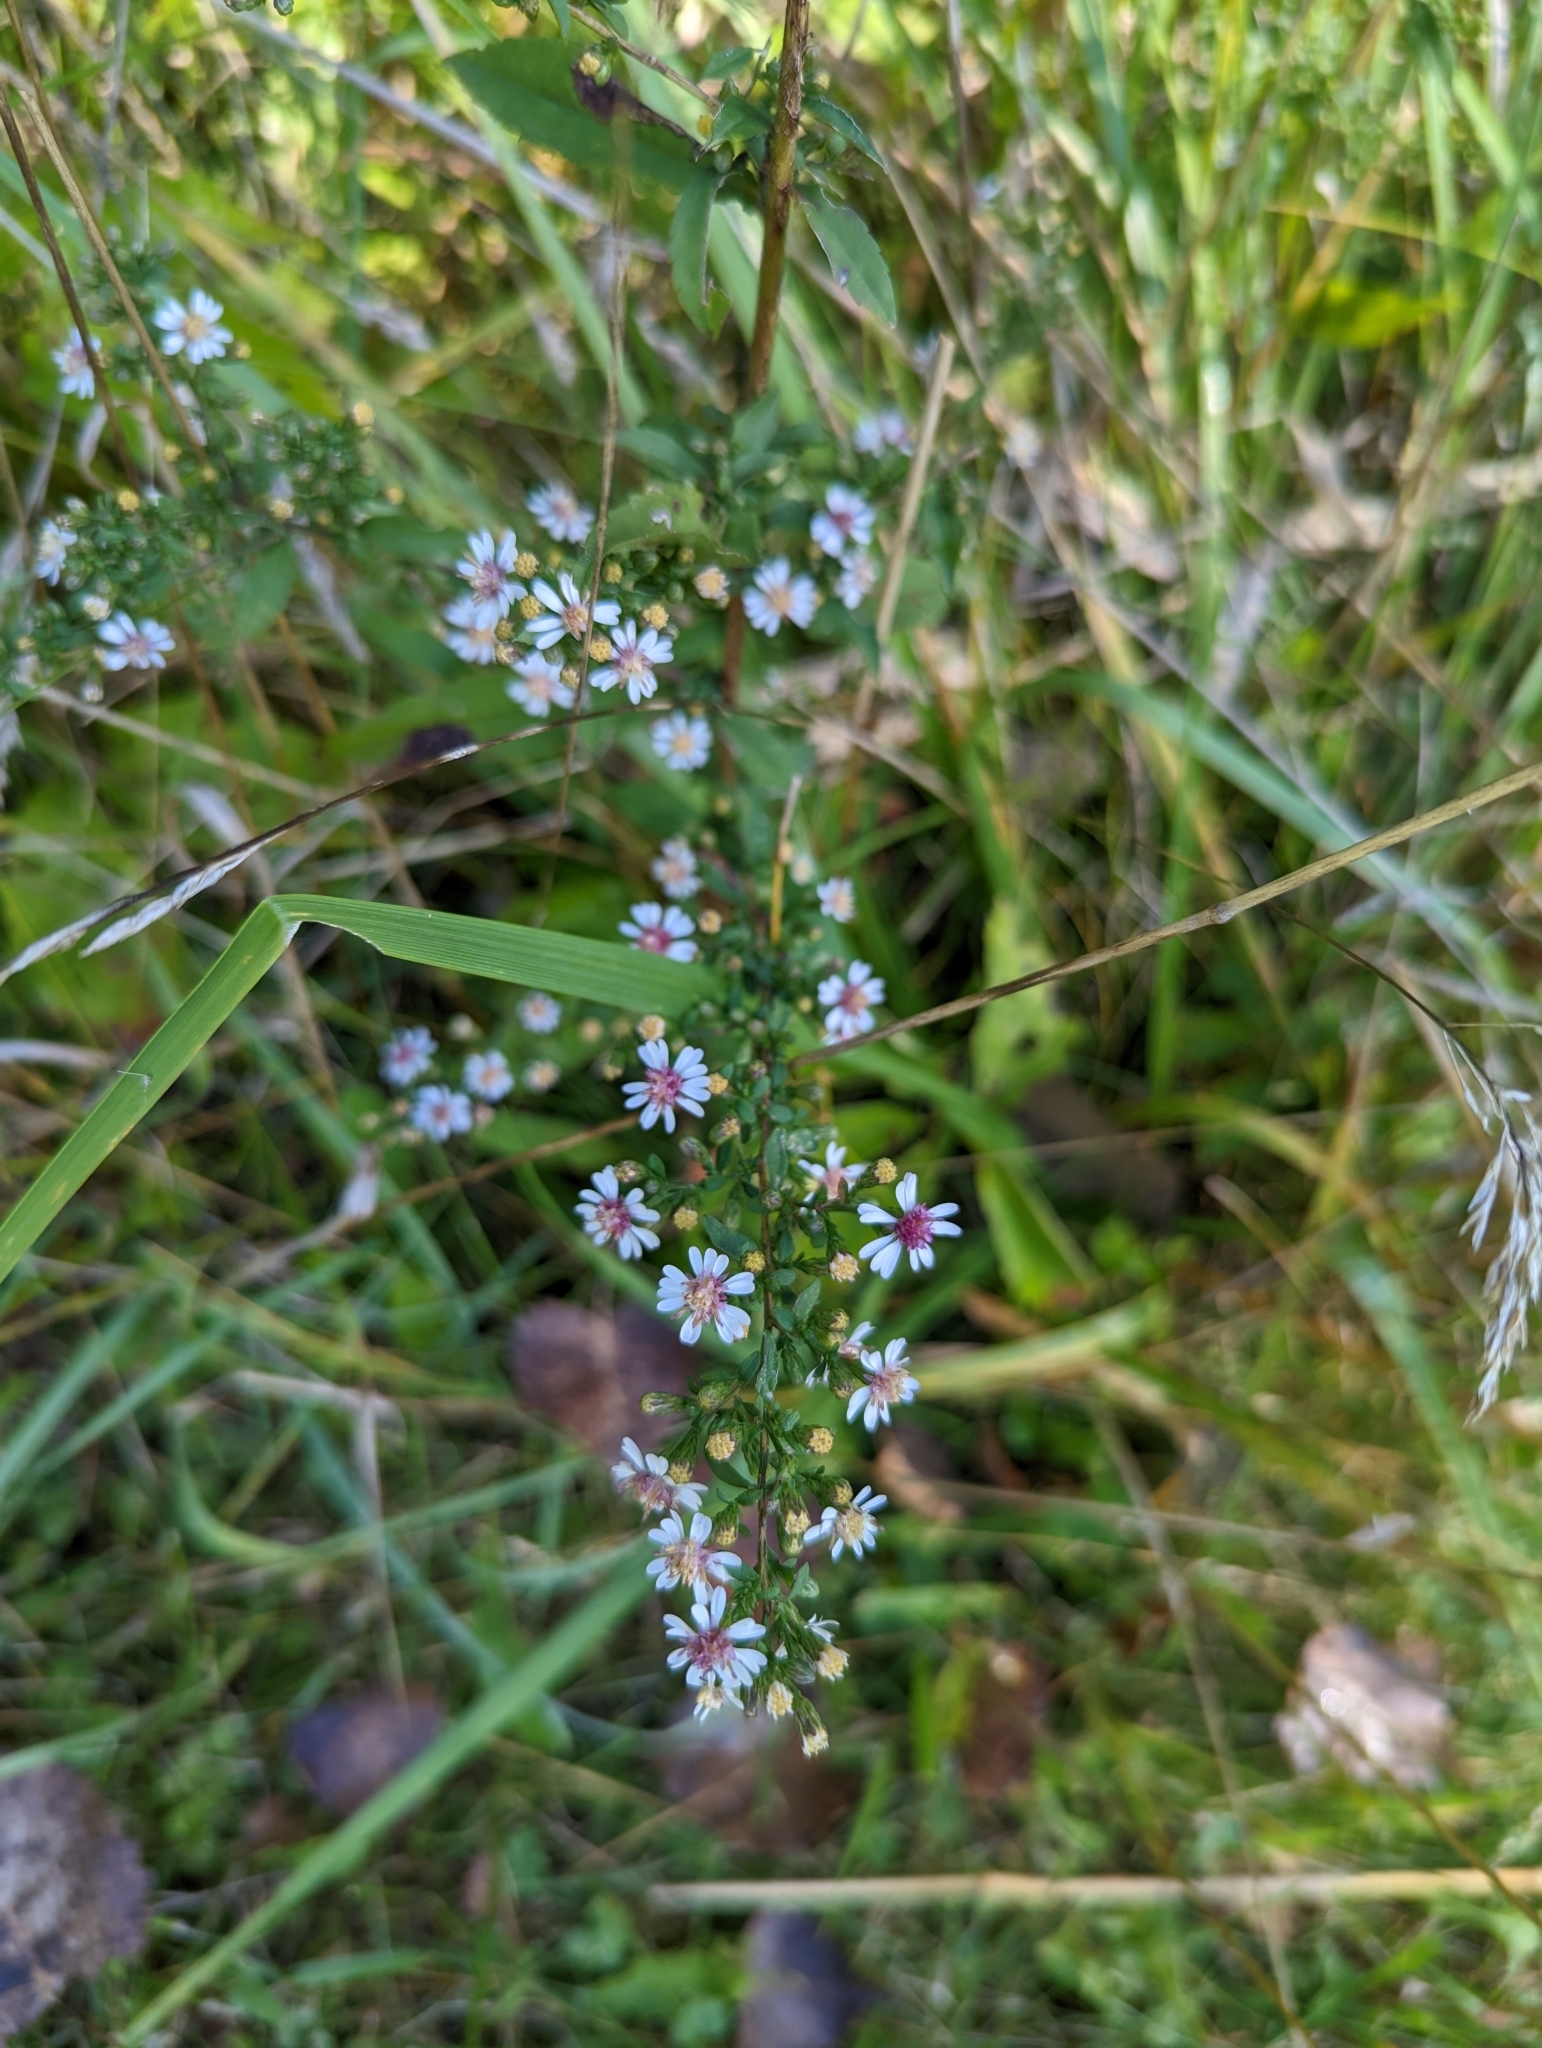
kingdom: Plantae
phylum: Tracheophyta
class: Magnoliopsida
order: Asterales
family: Asteraceae
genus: Symphyotrichum
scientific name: Symphyotrichum lateriflorum
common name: Calico aster
